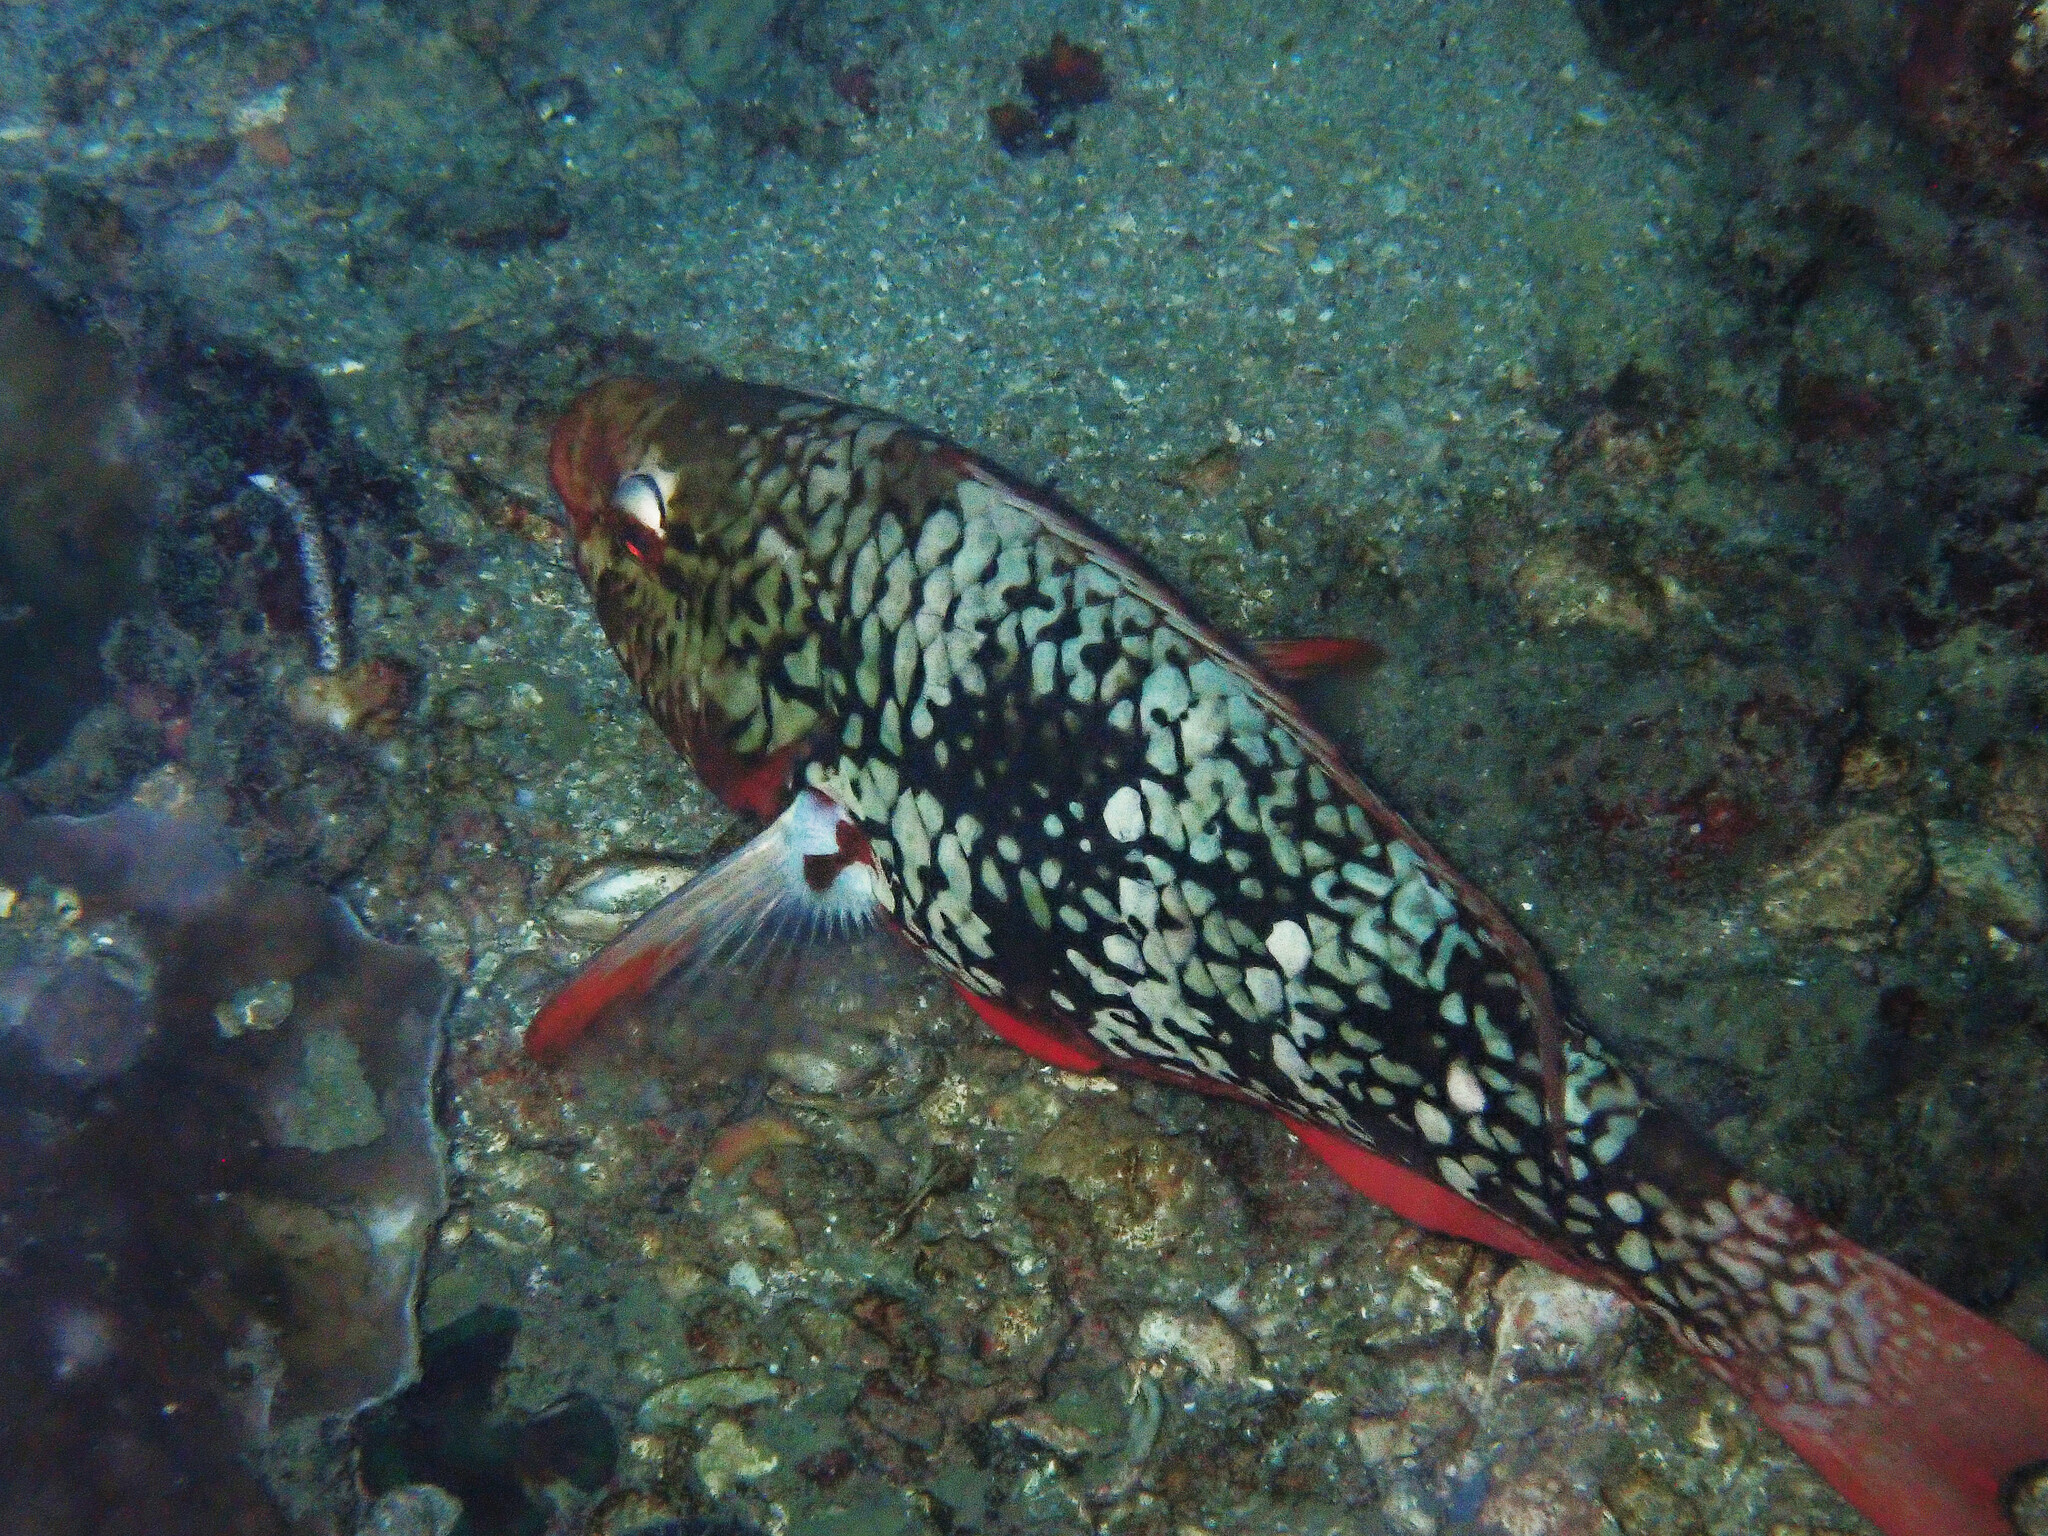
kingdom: Animalia
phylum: Chordata
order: Perciformes
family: Scaridae
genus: Scarus
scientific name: Scarus rubroviolaceus
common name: Ember parrotfish
